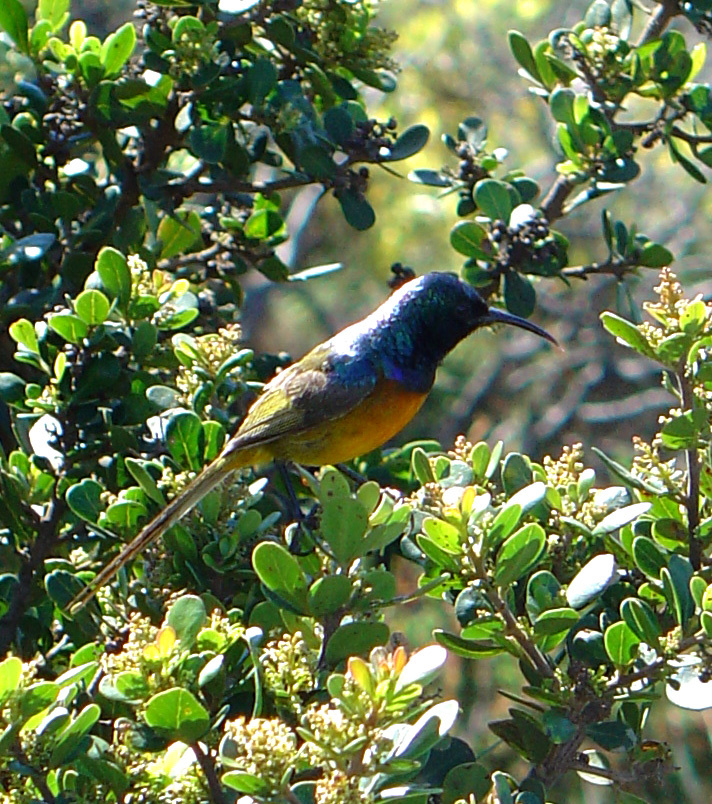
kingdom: Animalia
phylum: Chordata
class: Aves
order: Passeriformes
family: Nectariniidae
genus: Anthobaphes
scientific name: Anthobaphes violacea
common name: Orange-breasted sunbird
